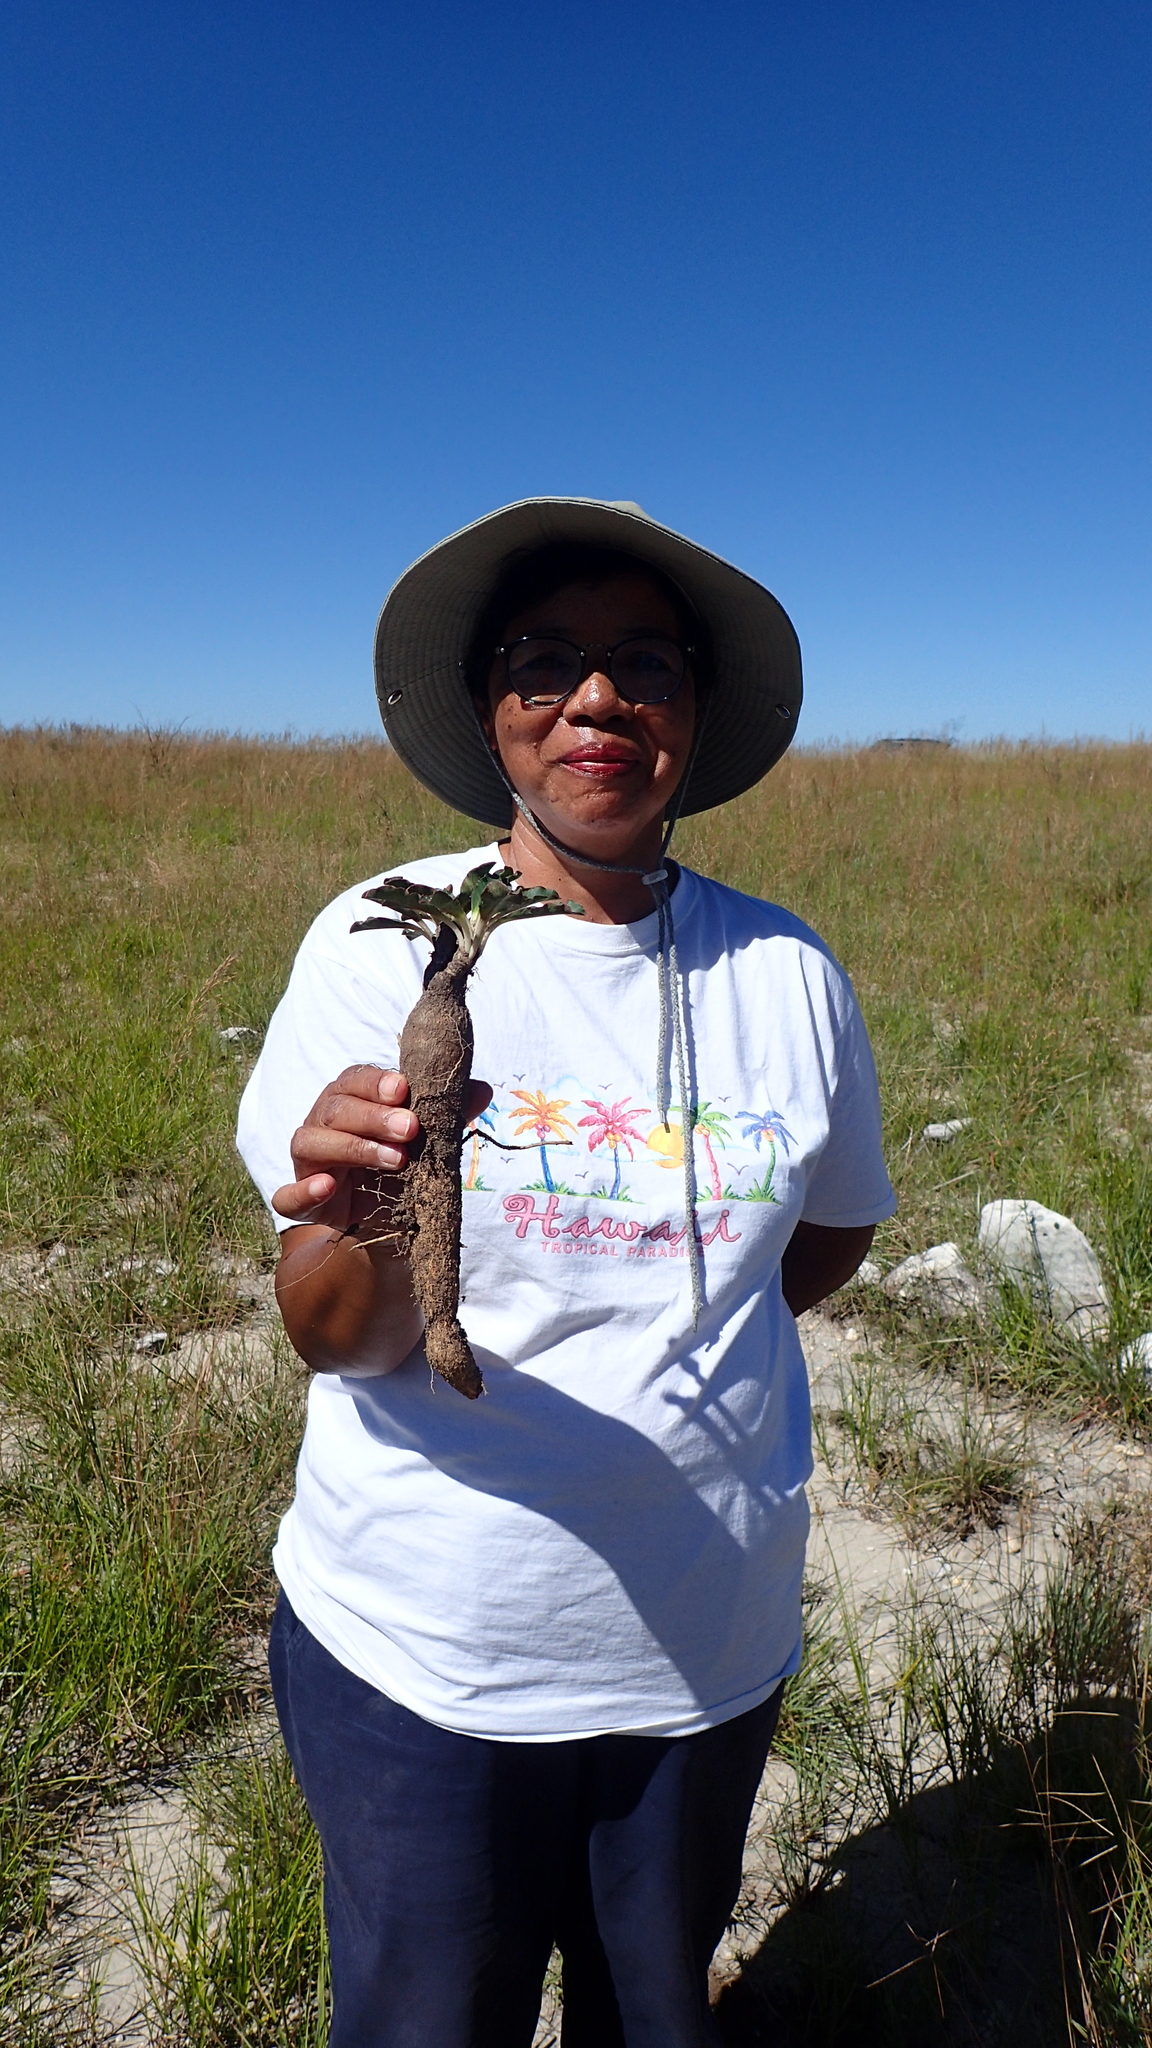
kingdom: Plantae
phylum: Tracheophyta
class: Magnoliopsida
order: Malpighiales
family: Euphorbiaceae
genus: Euphorbia
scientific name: Euphorbia begardii
